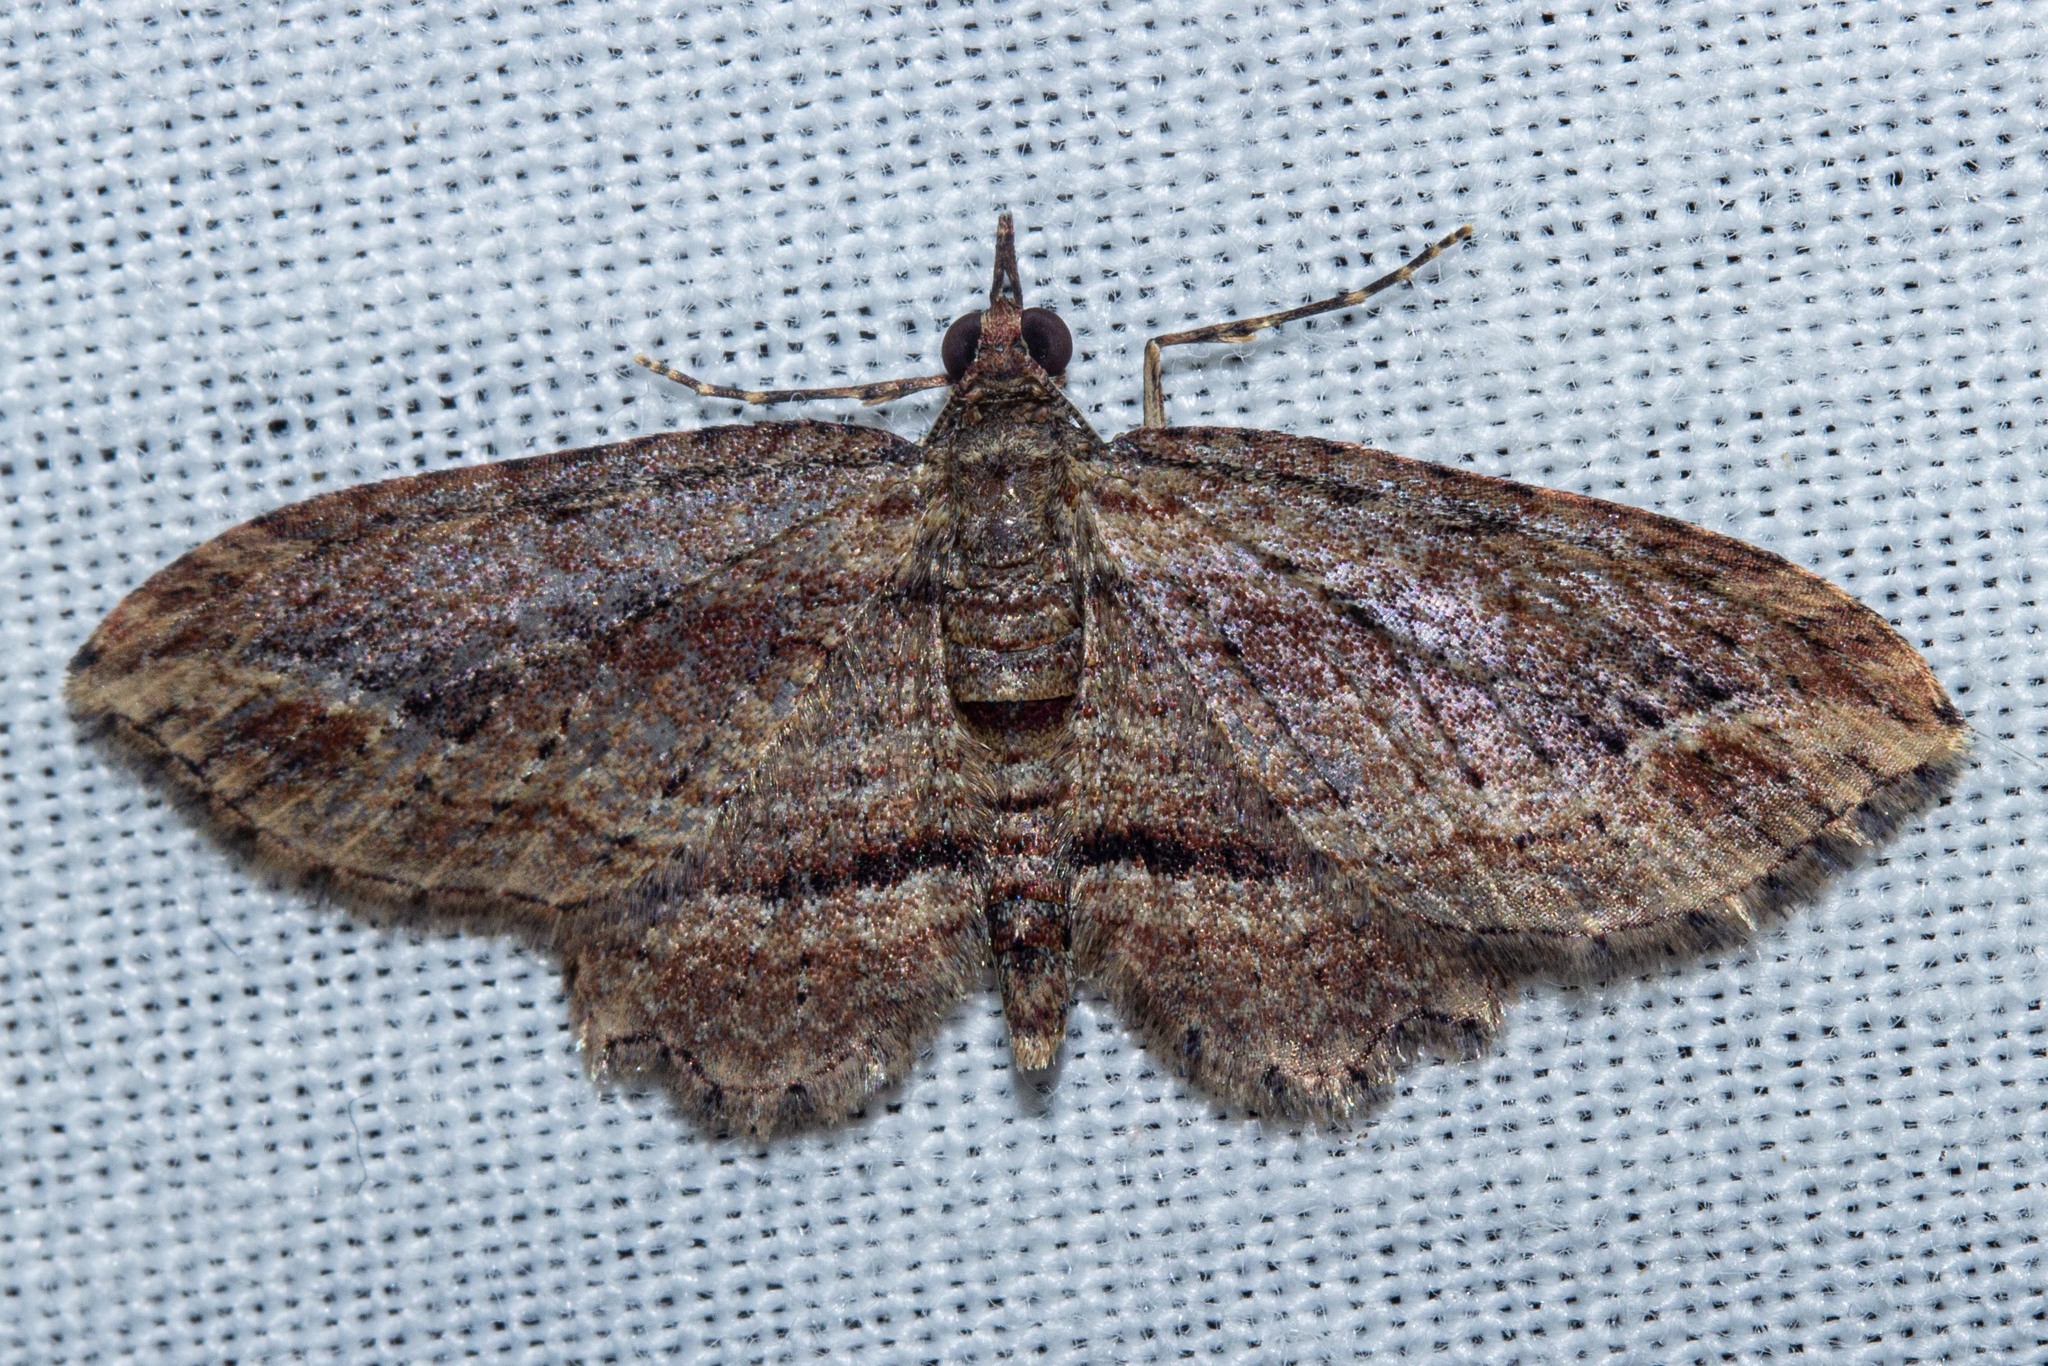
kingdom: Animalia
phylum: Arthropoda
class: Insecta
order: Lepidoptera
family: Geometridae
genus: Chloroclystis
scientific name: Chloroclystis filata
